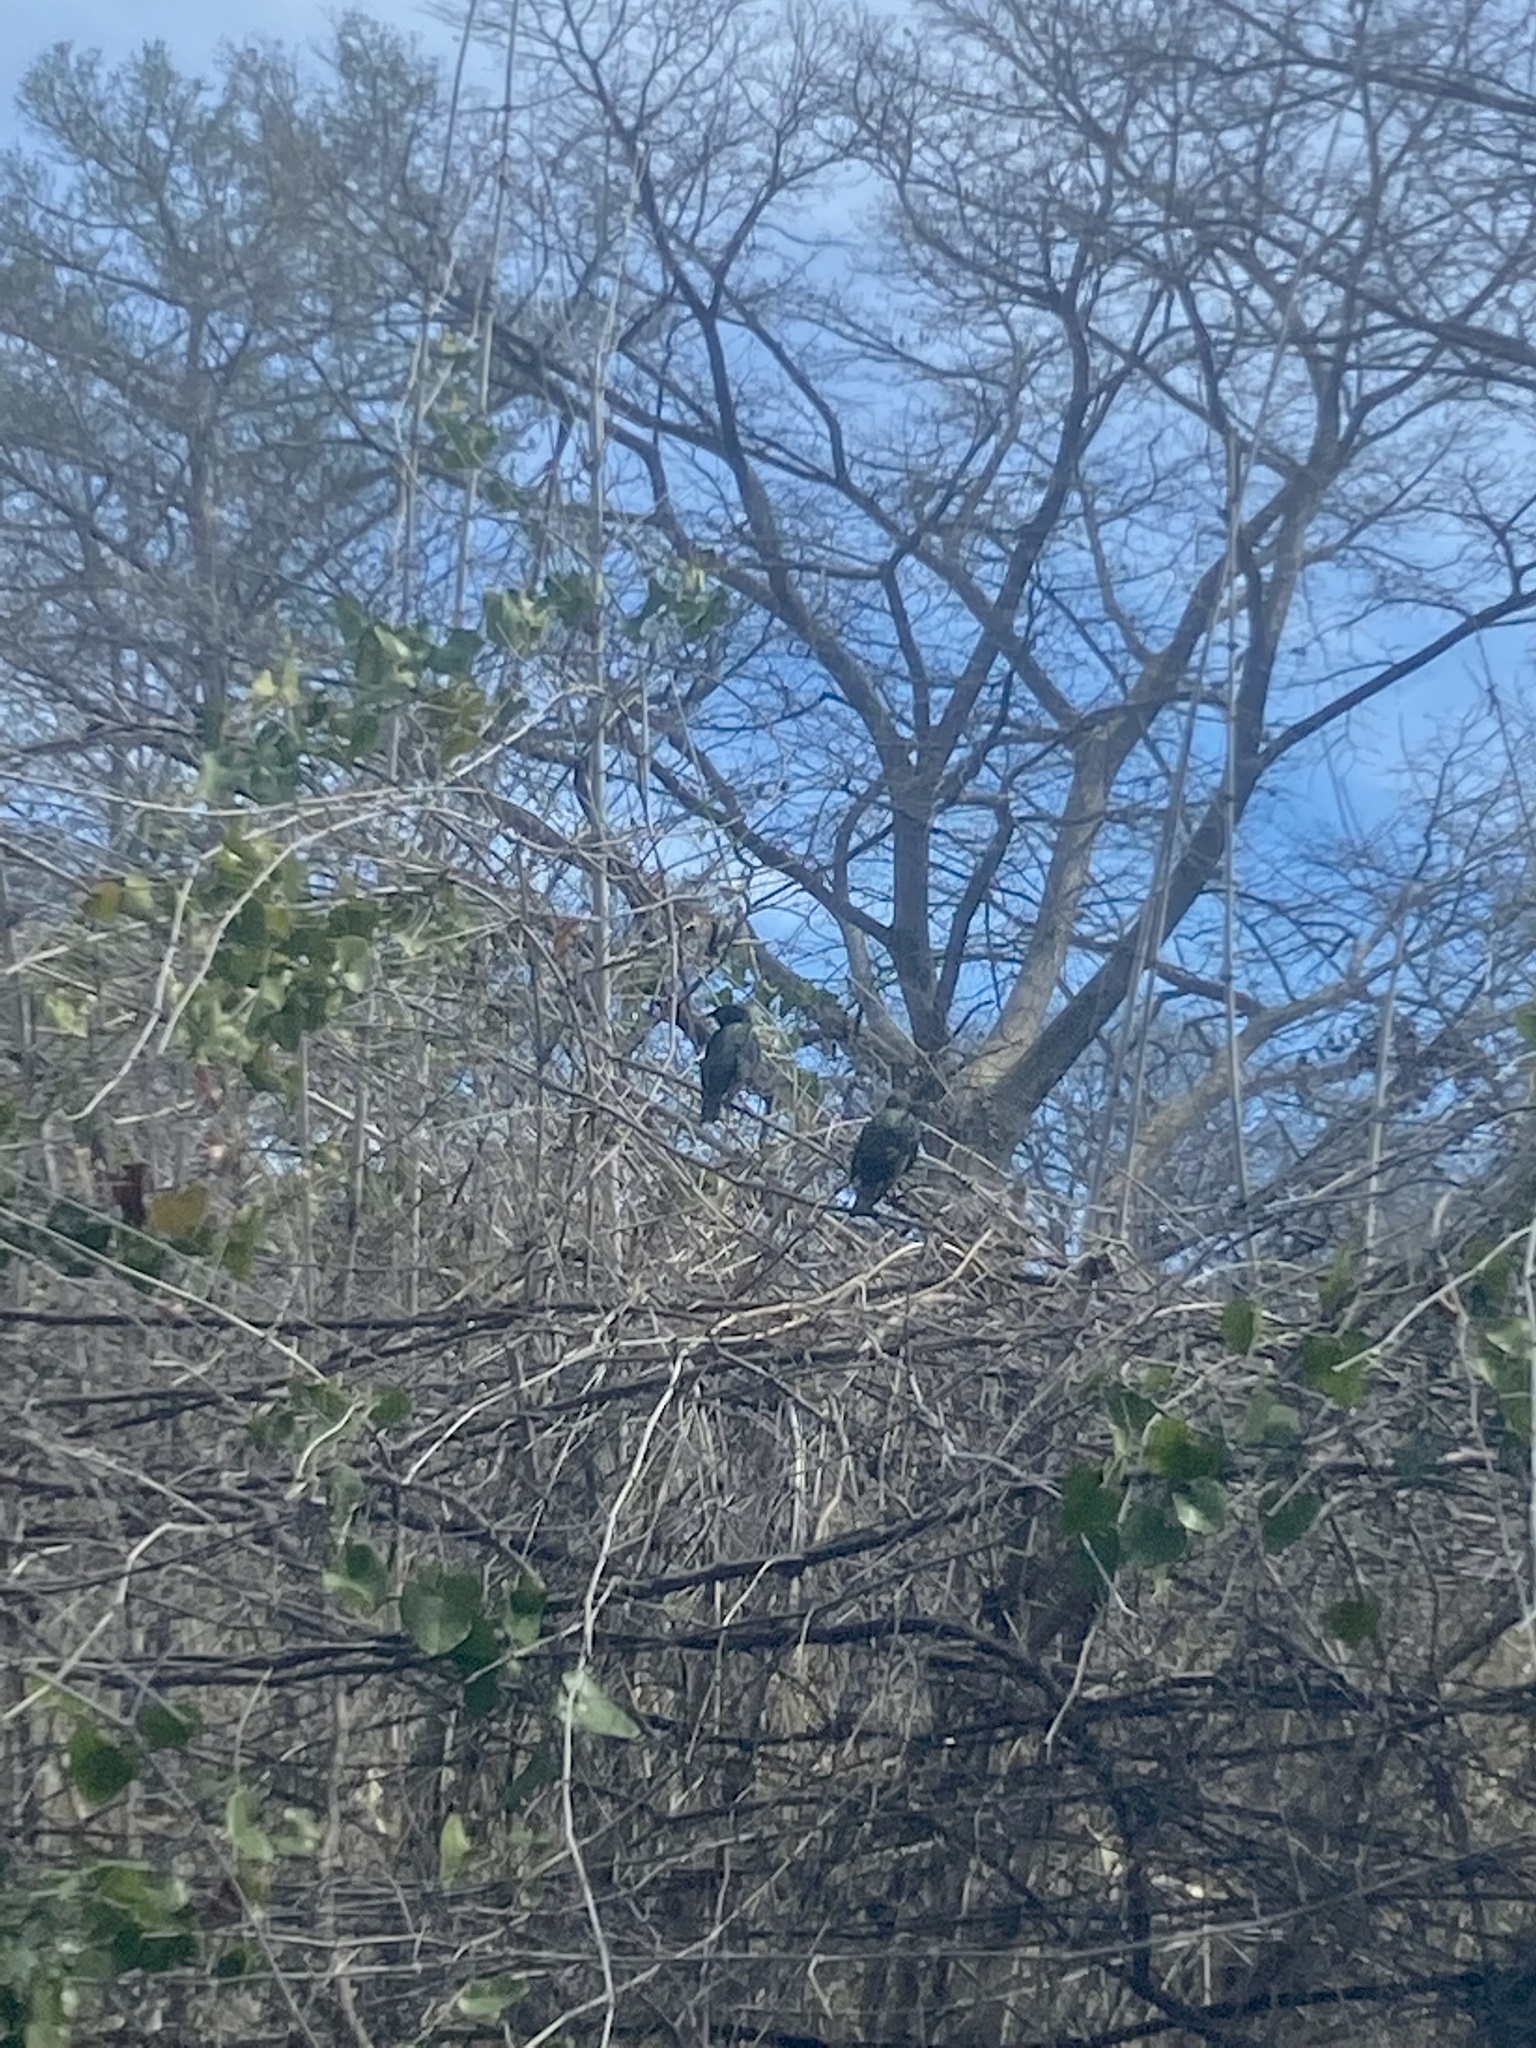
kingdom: Animalia
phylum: Chordata
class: Aves
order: Passeriformes
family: Sturnidae
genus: Sturnus
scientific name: Sturnus vulgaris
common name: Common starling
